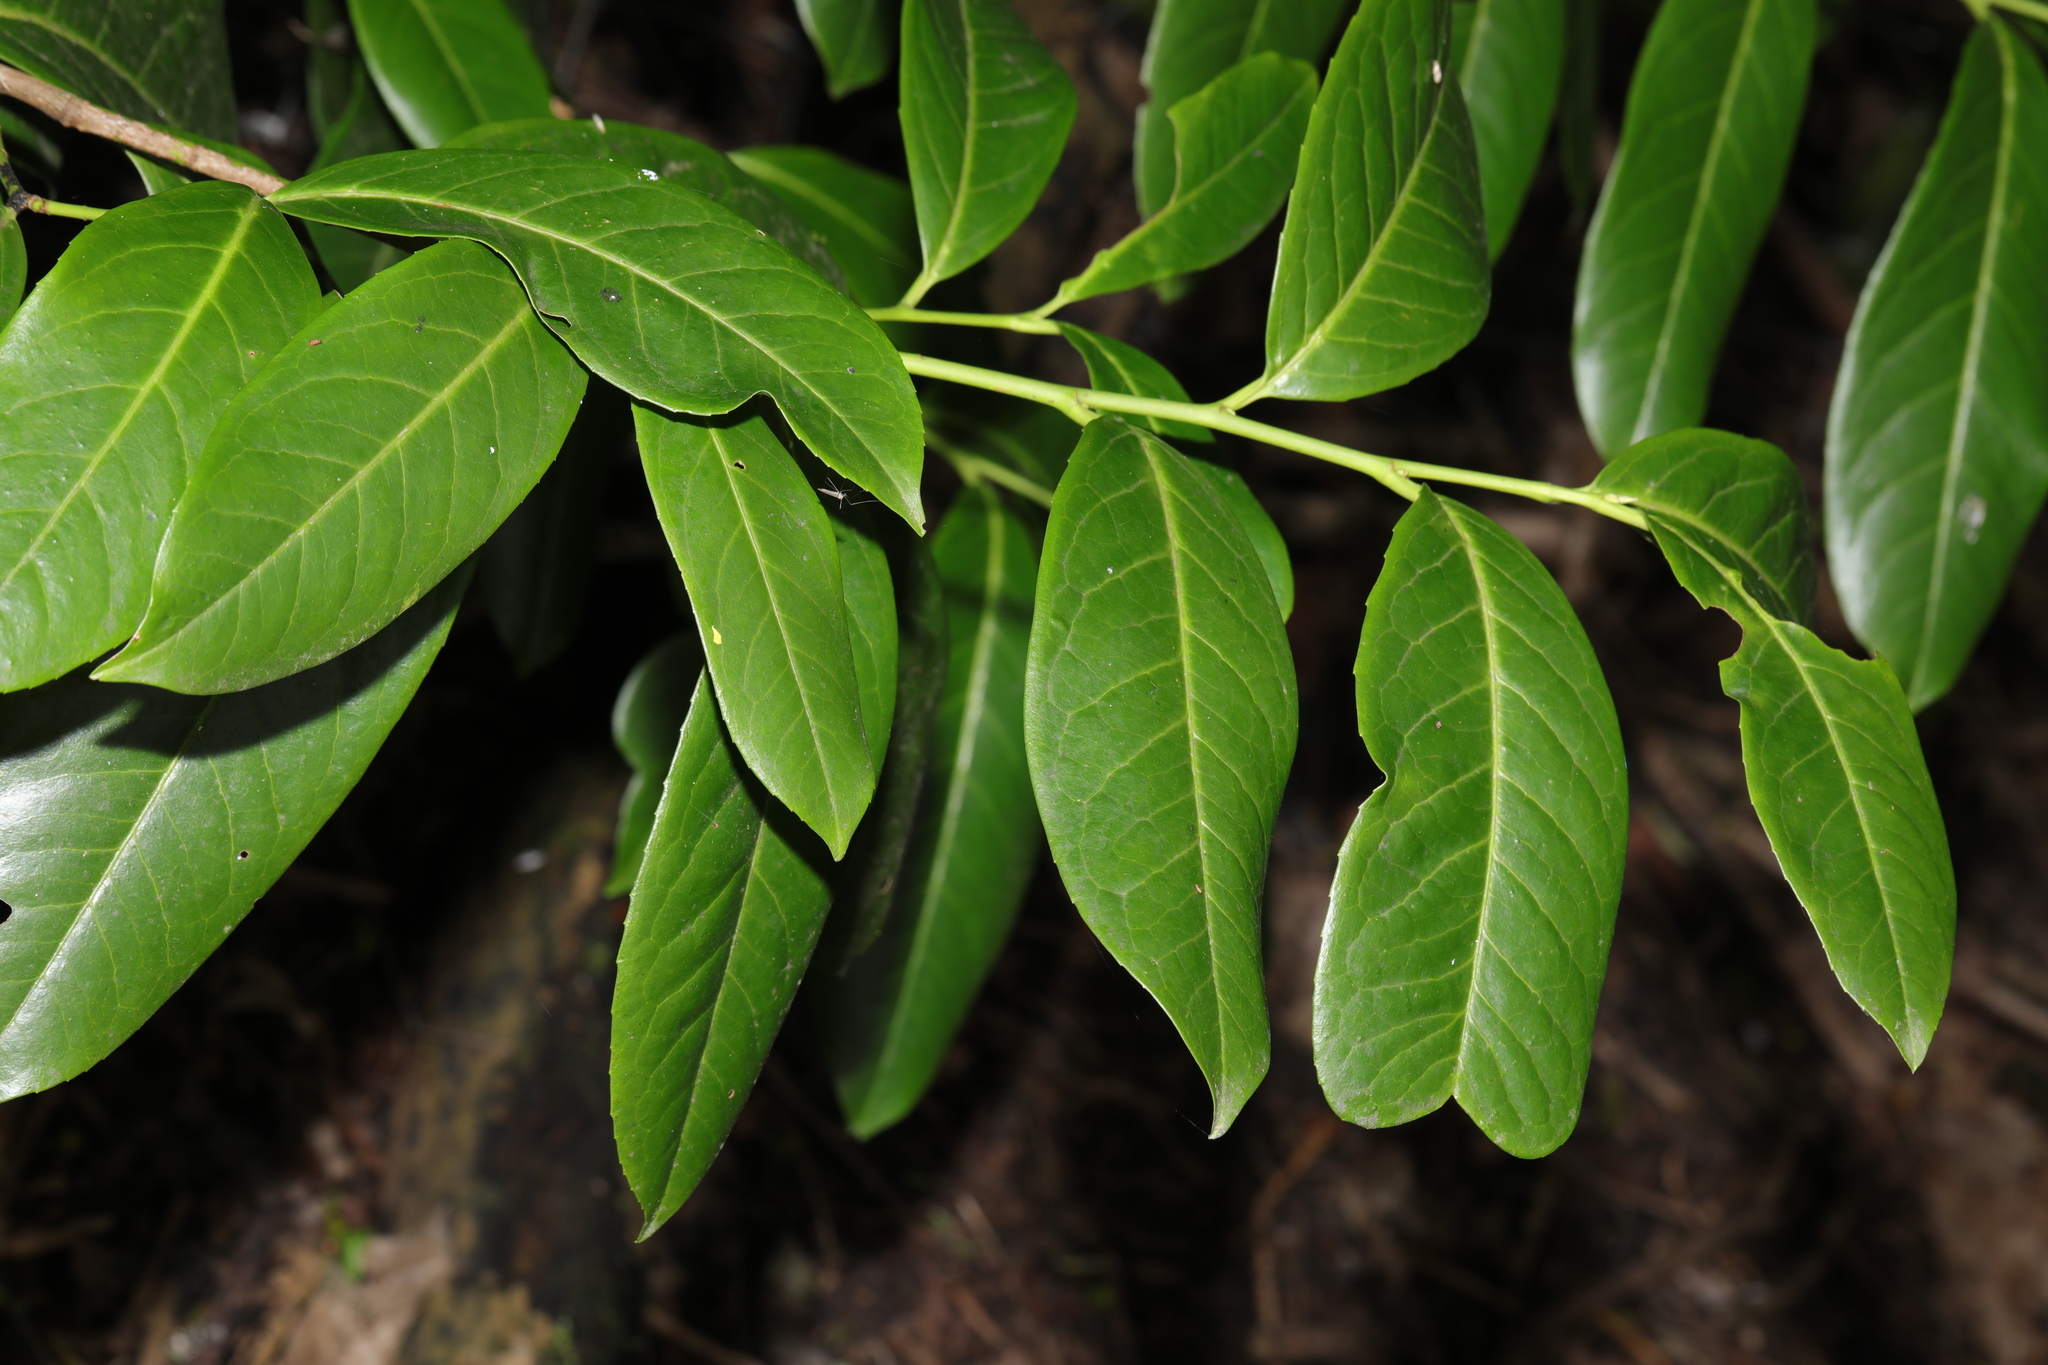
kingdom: Plantae
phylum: Tracheophyta
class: Magnoliopsida
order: Rosales
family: Rosaceae
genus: Prunus
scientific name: Prunus laurocerasus
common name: Cherry laurel
